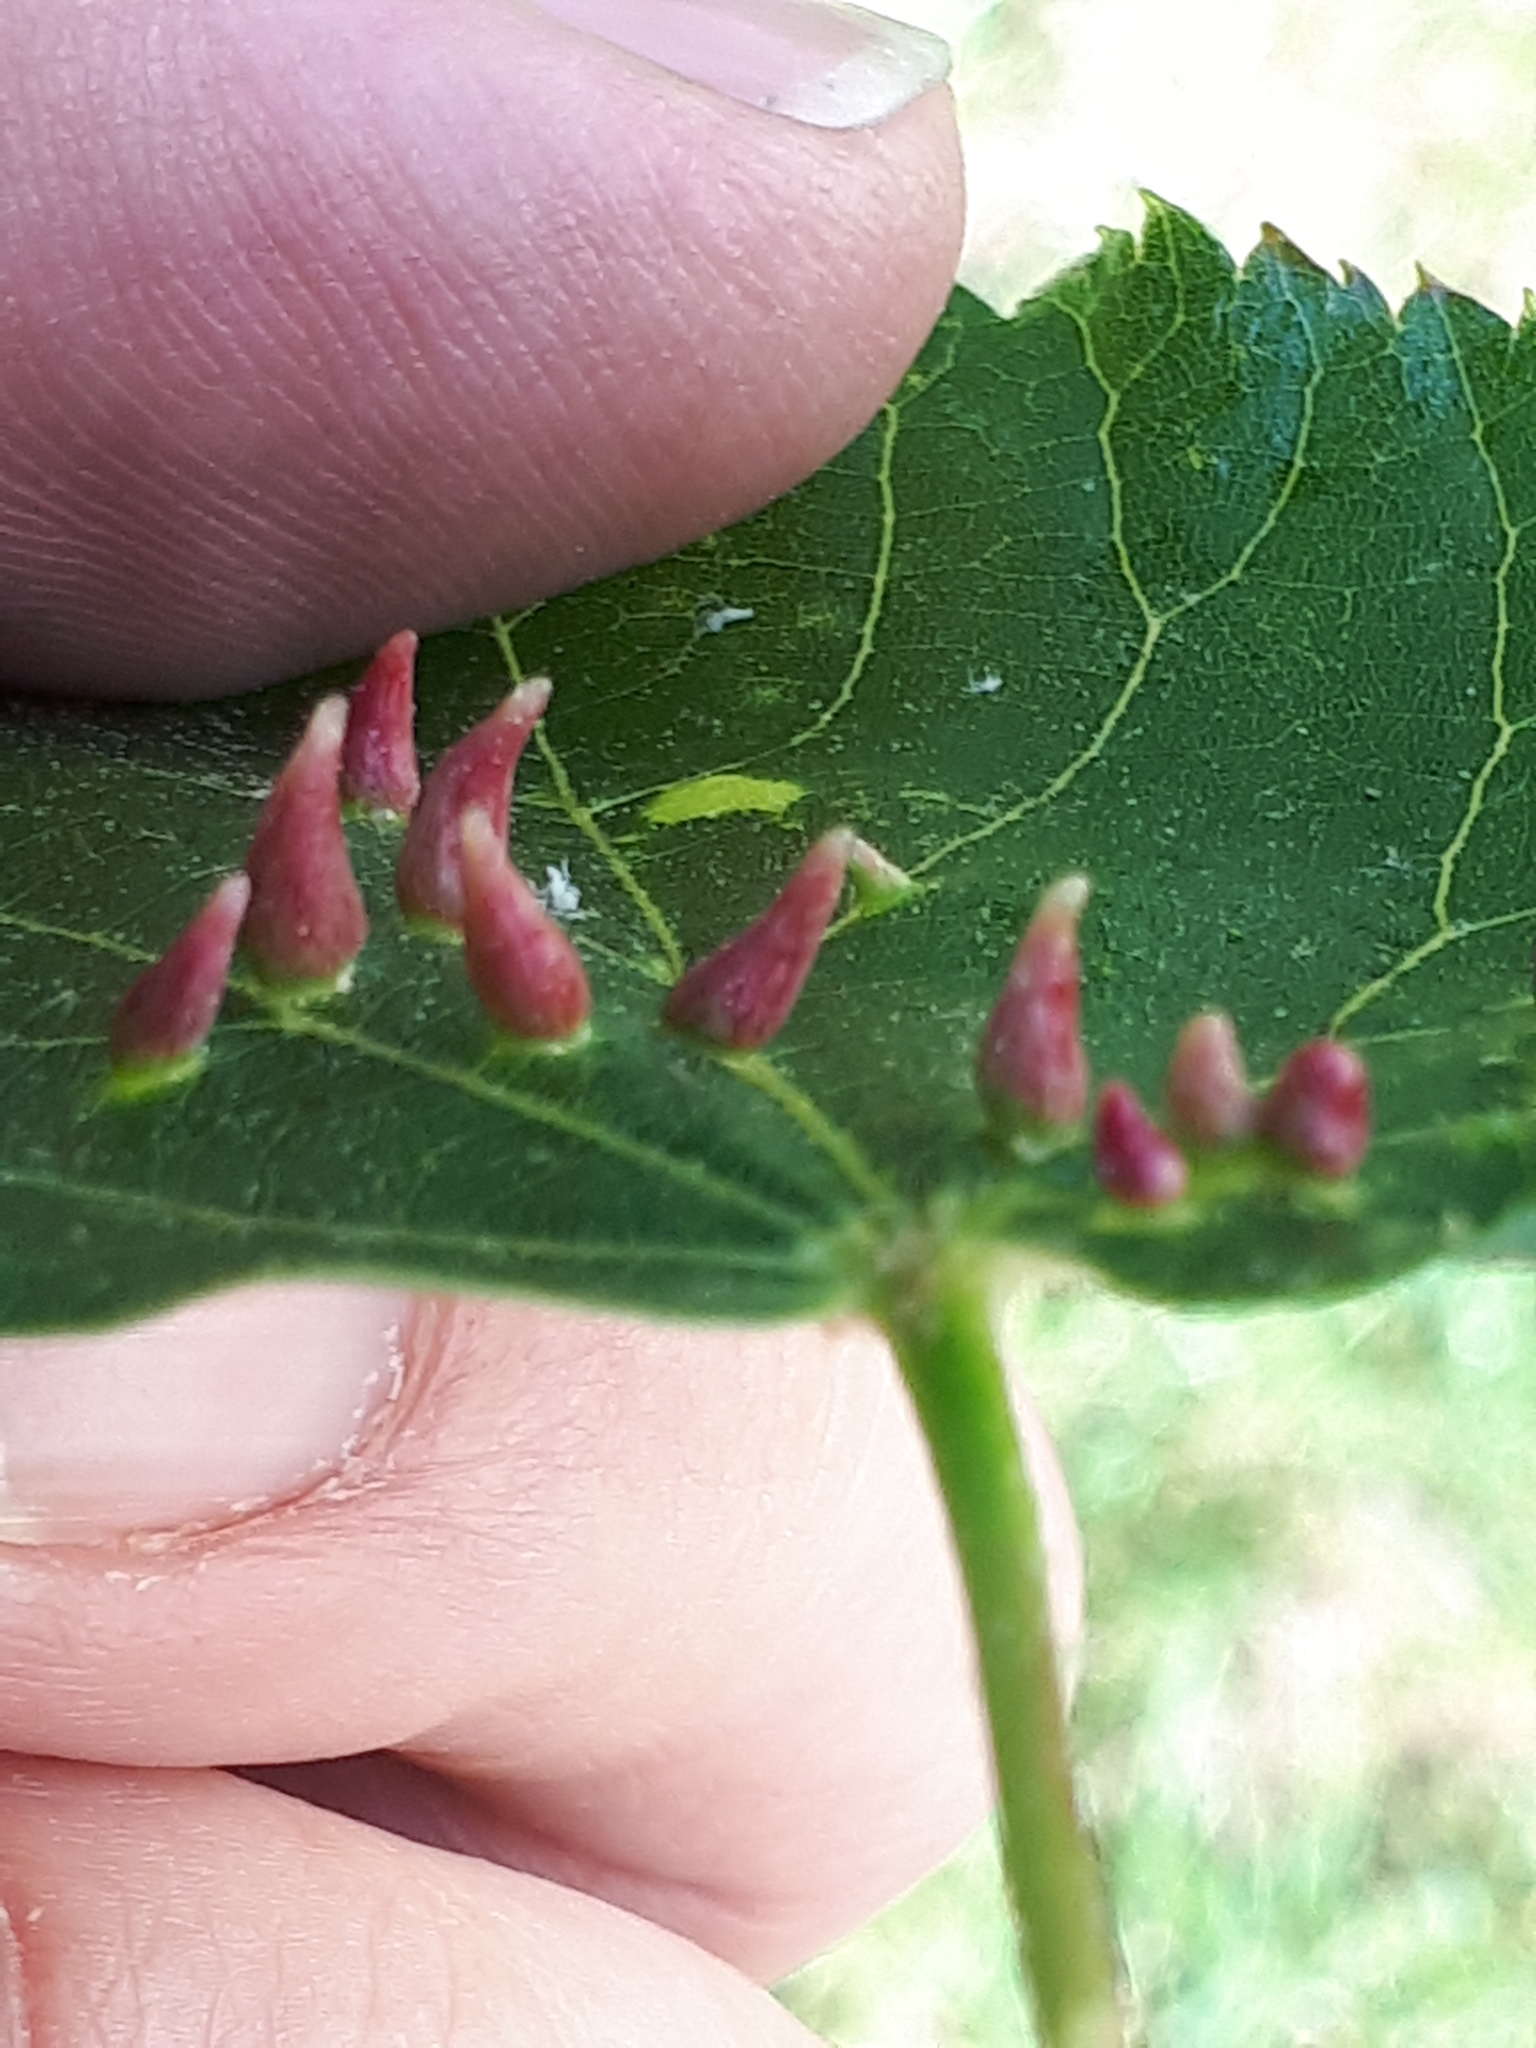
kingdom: Animalia
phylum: Arthropoda
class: Arachnida
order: Trombidiformes
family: Eriophyidae
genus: Eriophyes
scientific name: Eriophyes tiliae
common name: Red nail gall mite
